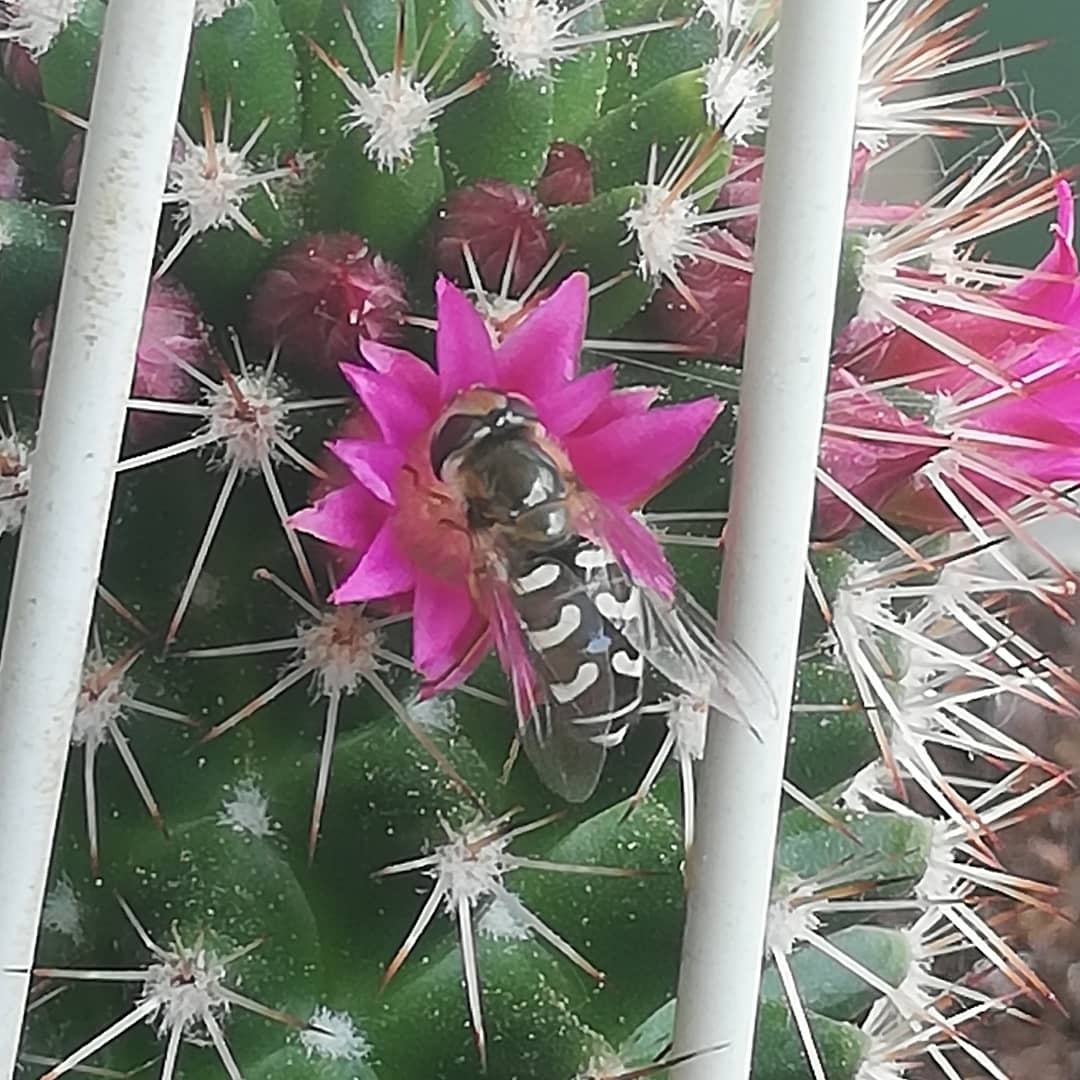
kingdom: Animalia
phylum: Arthropoda
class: Insecta
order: Diptera
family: Syrphidae
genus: Scaeva
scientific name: Scaeva pyrastri
